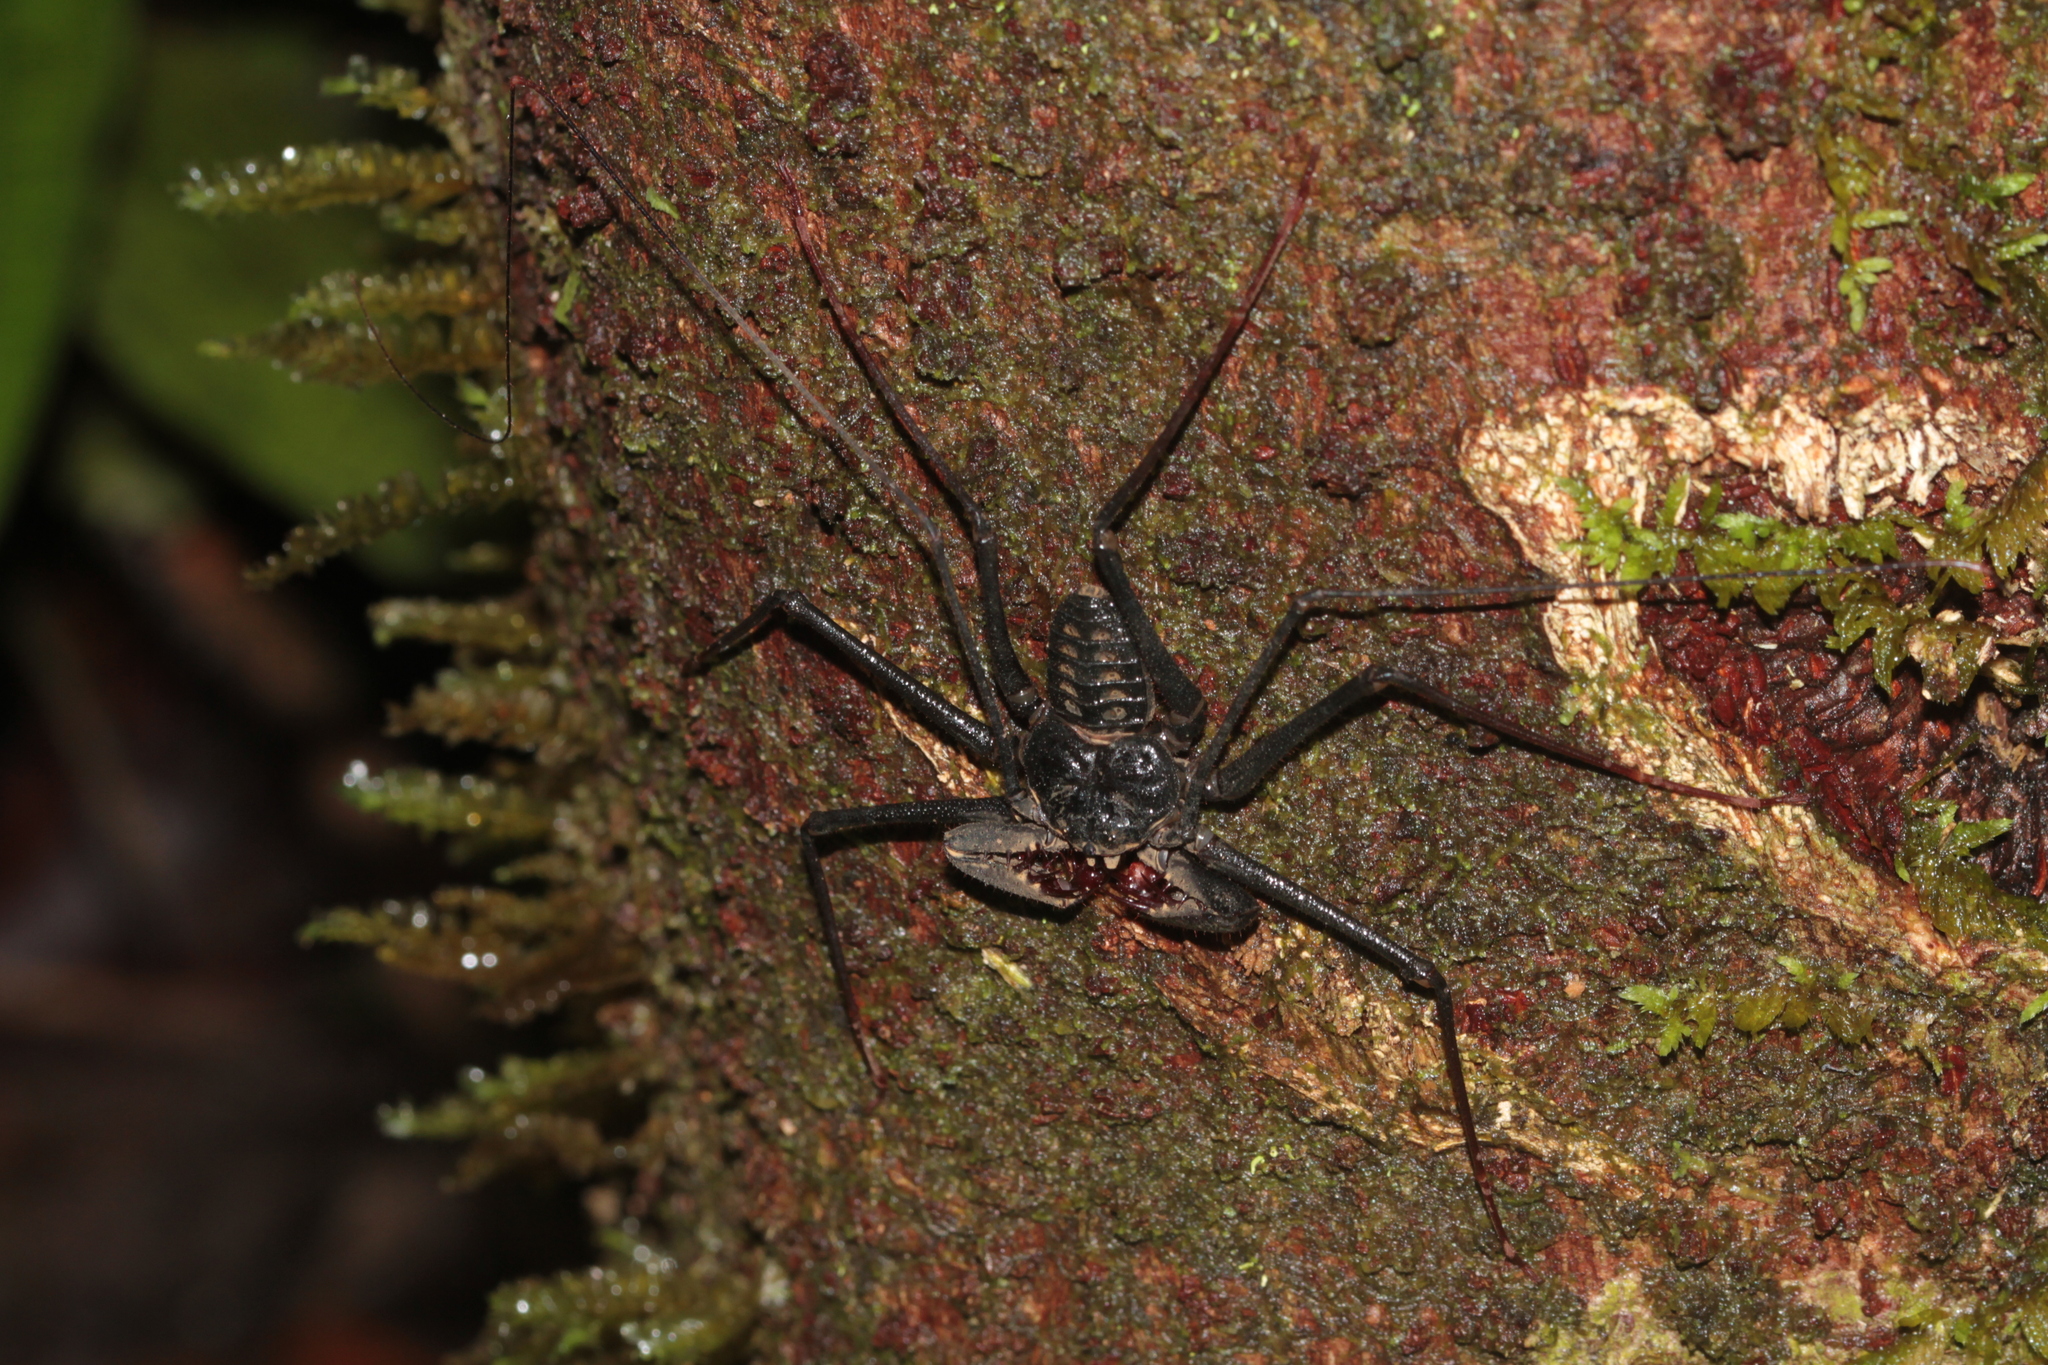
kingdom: Animalia
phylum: Arthropoda
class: Arachnida
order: Amblypygi
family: Phrynidae
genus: Heterophrynus
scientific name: Heterophrynus alces
